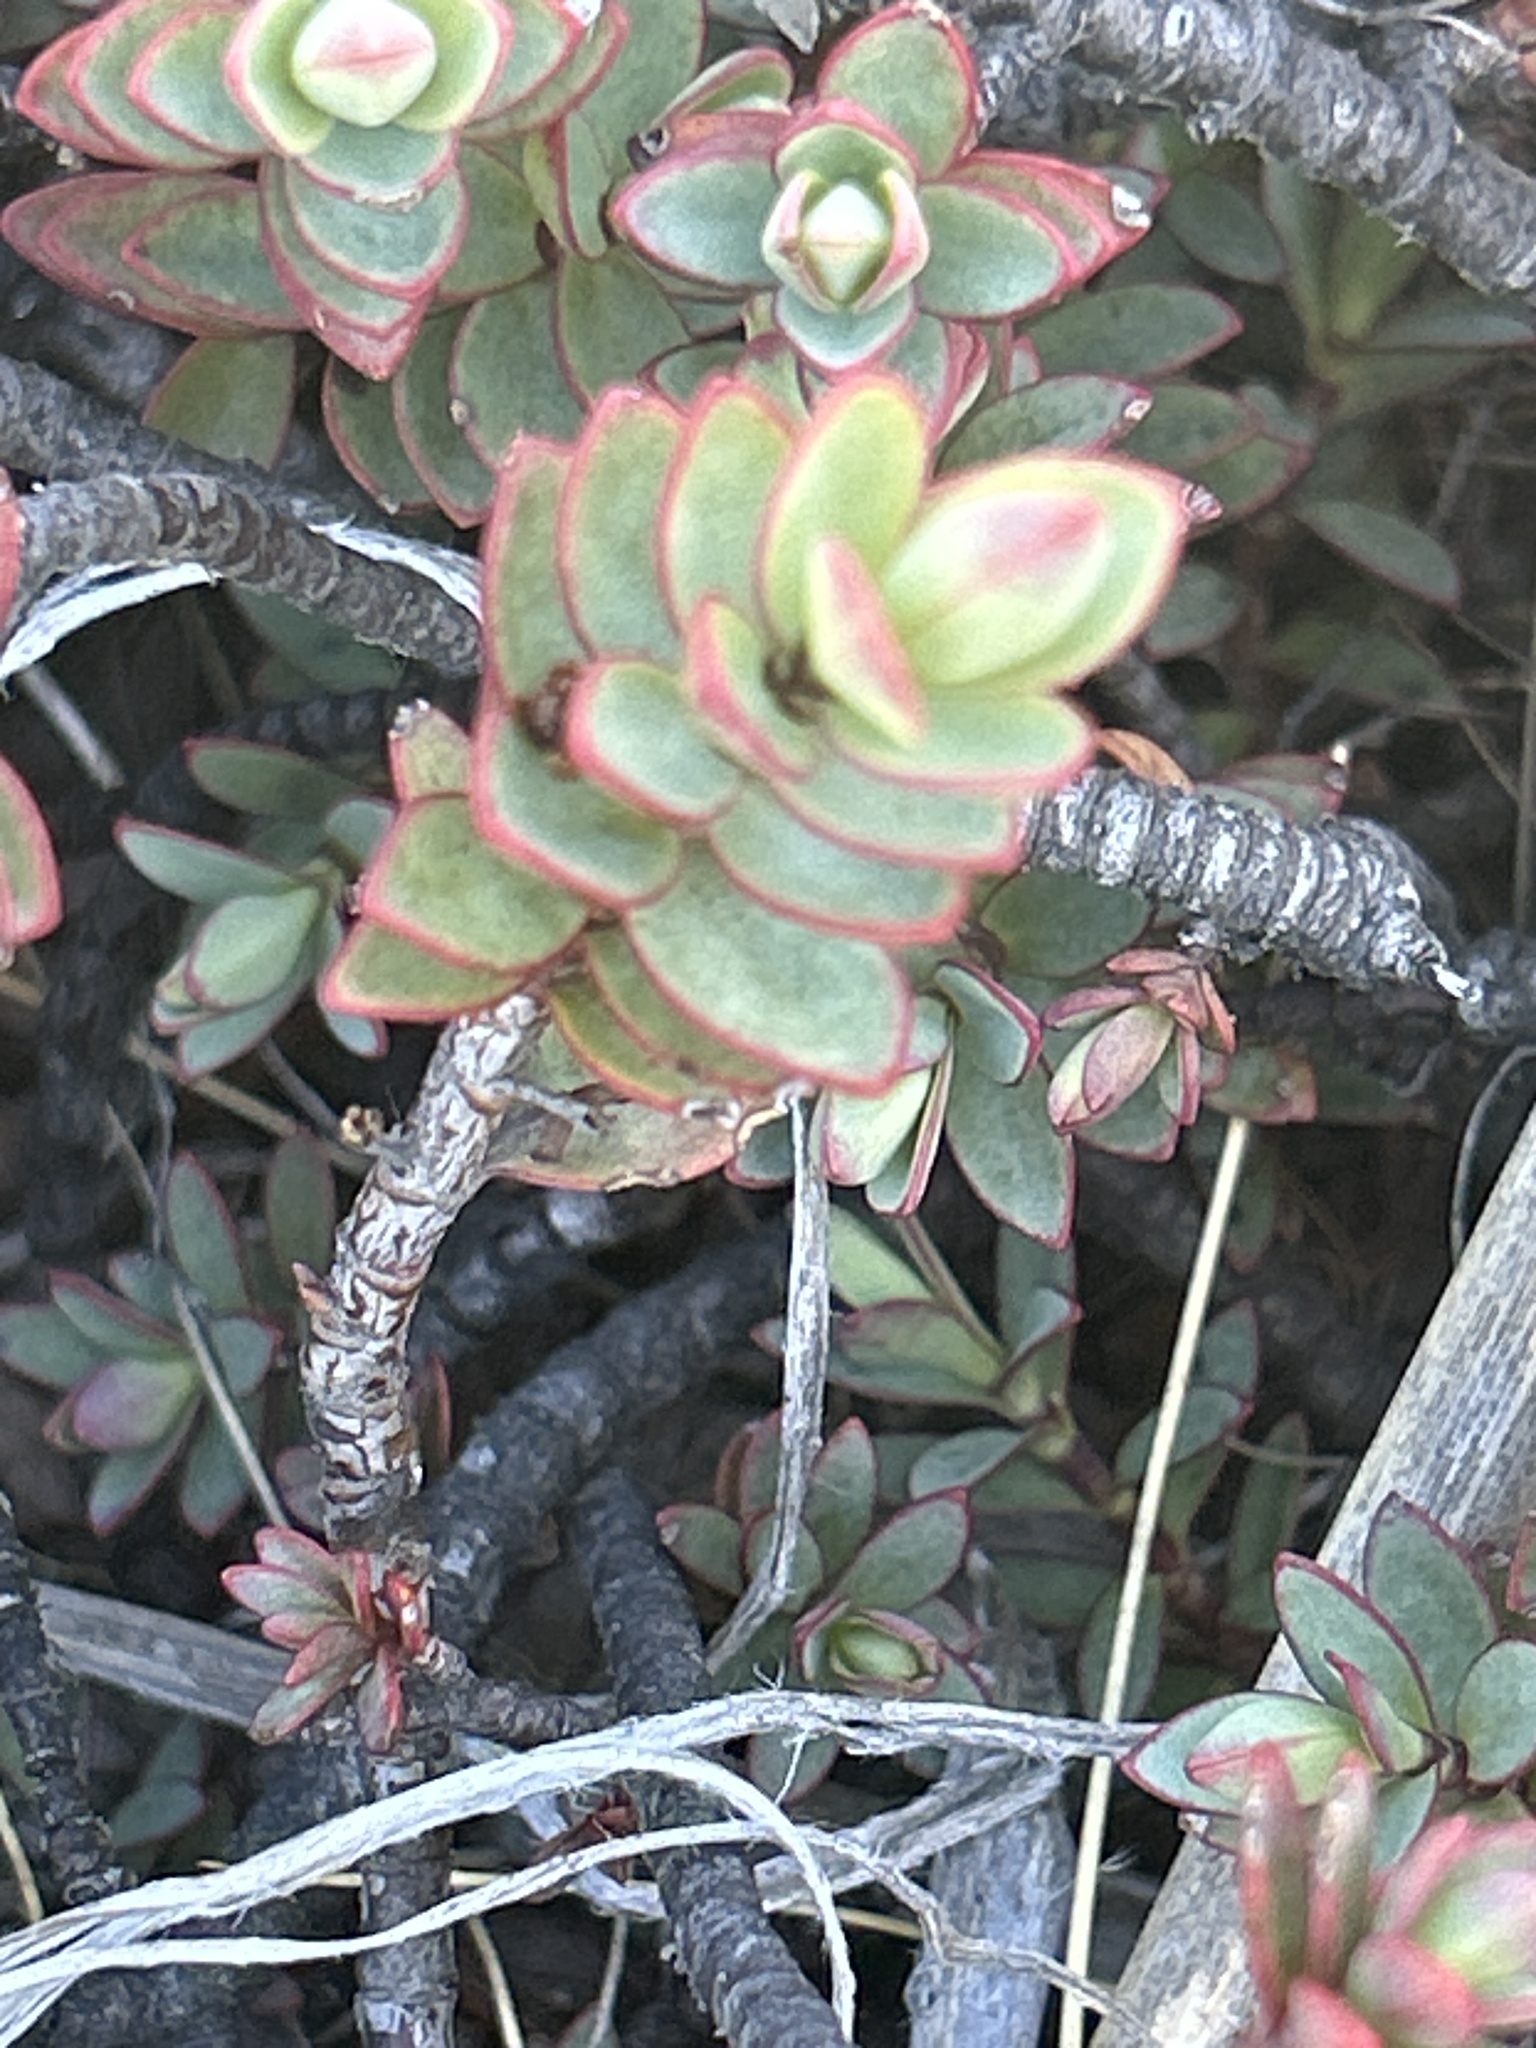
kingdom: Plantae
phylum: Tracheophyta
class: Magnoliopsida
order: Lamiales
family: Plantaginaceae
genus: Veronica
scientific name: Veronica pinguifolia
